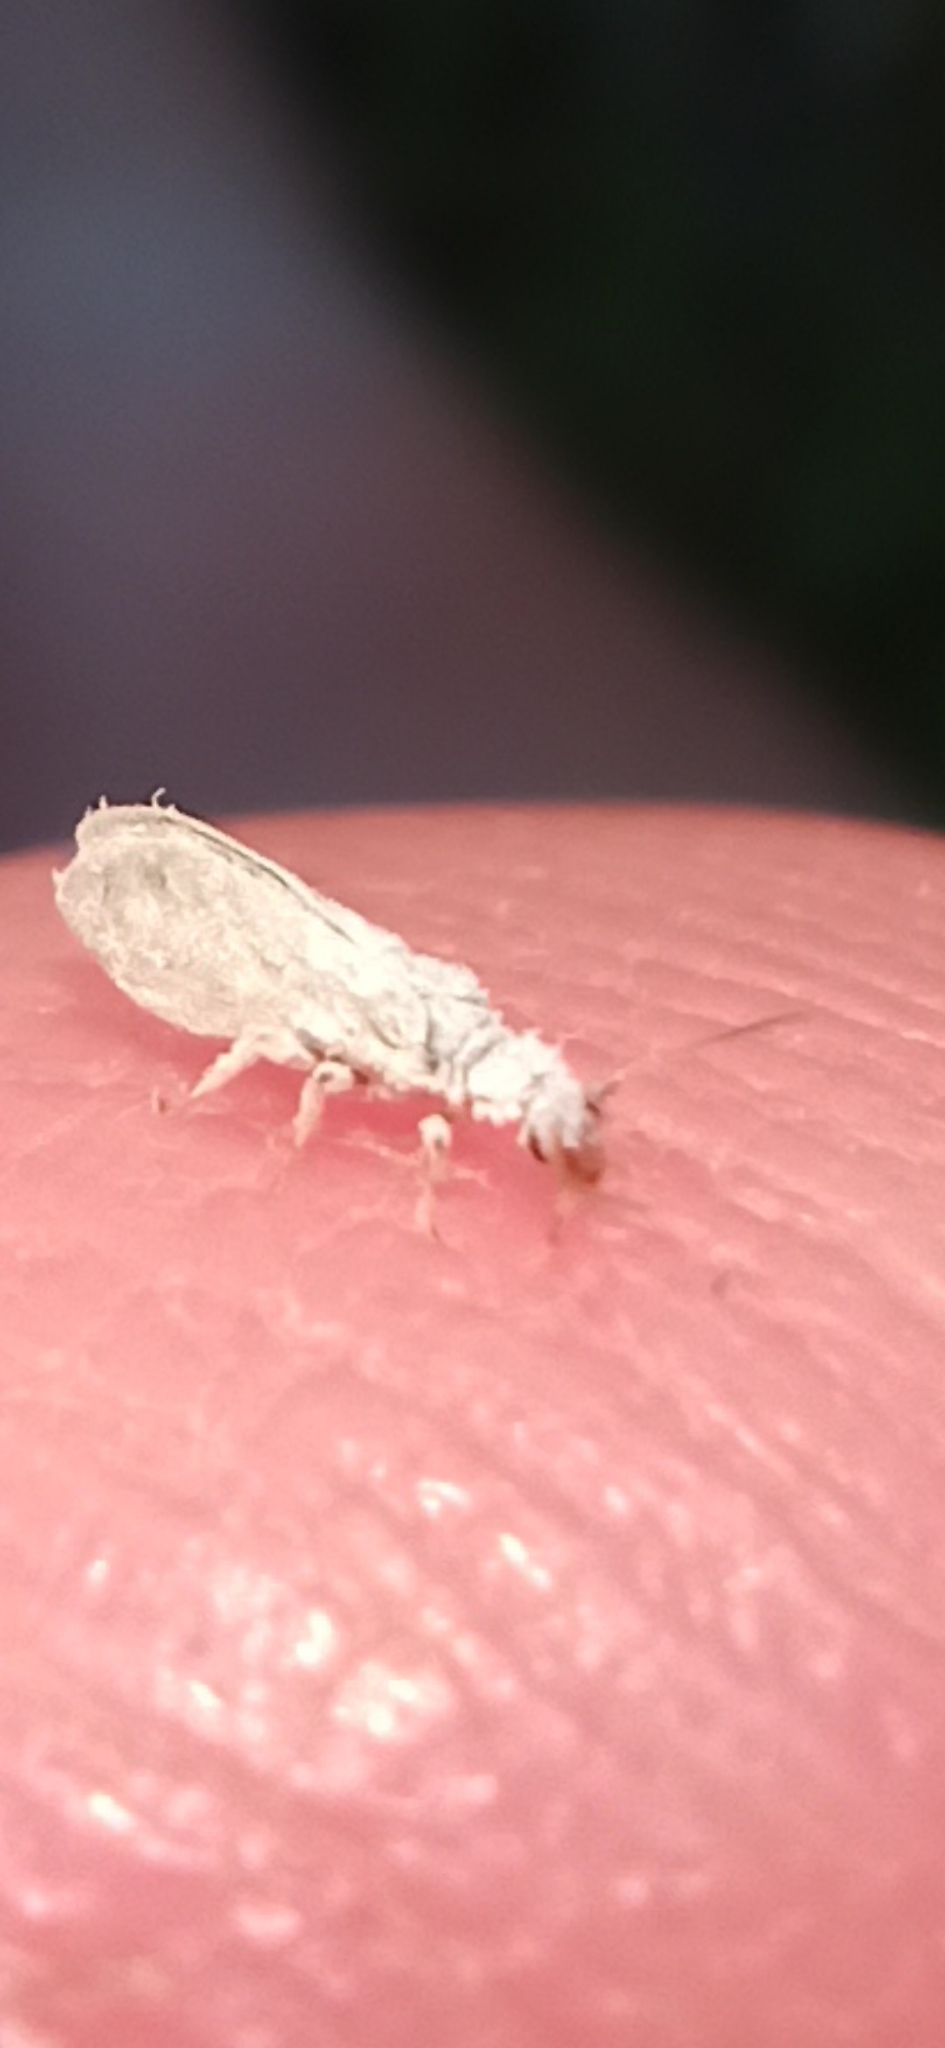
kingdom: Animalia
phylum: Arthropoda
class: Insecta
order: Neuroptera
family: Coniopterygidae
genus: Cryptoscenea
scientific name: Cryptoscenea australiensis
